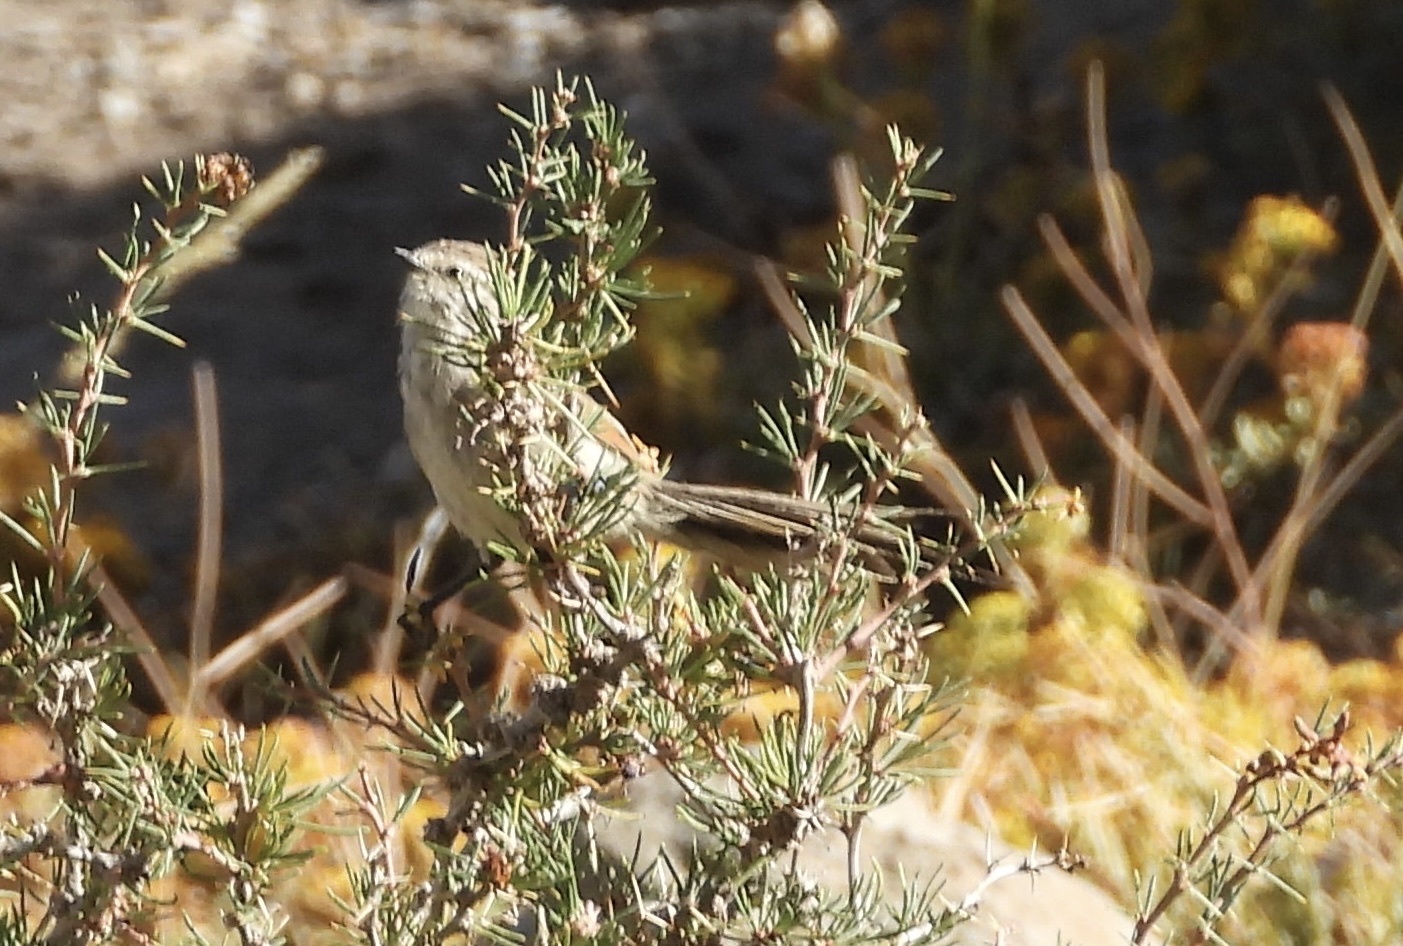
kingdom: Animalia
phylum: Chordata
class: Aves
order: Passeriformes
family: Furnariidae
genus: Leptasthenura
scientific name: Leptasthenura aegithaloides
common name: Plain-mantled tit-spinetail
